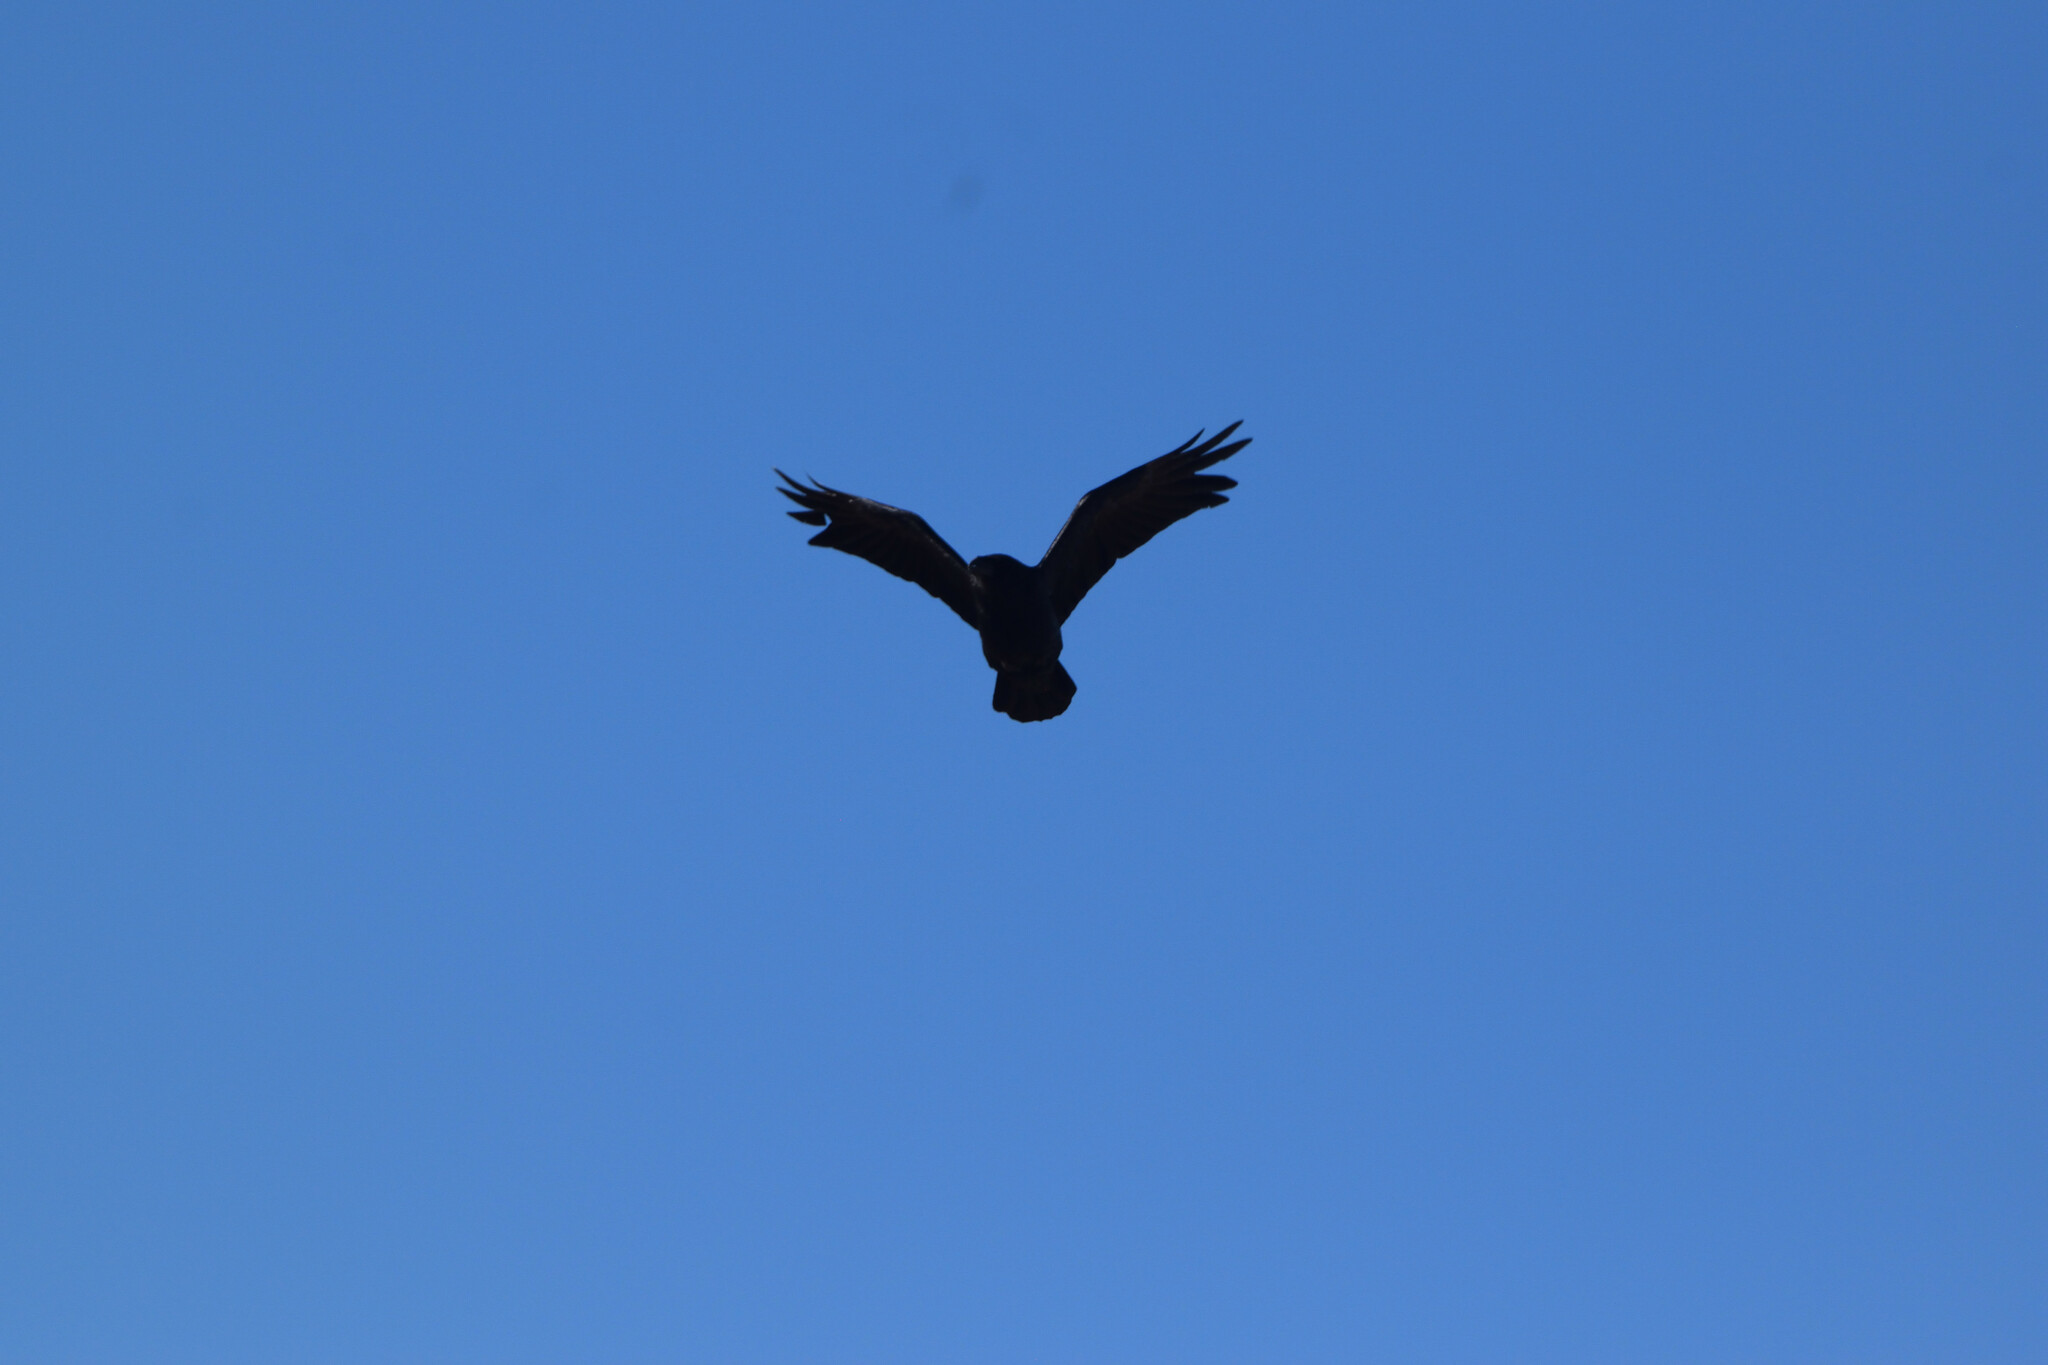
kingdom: Animalia
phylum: Chordata
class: Aves
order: Passeriformes
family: Corvidae
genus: Corvus
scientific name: Corvus corax
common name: Common raven
